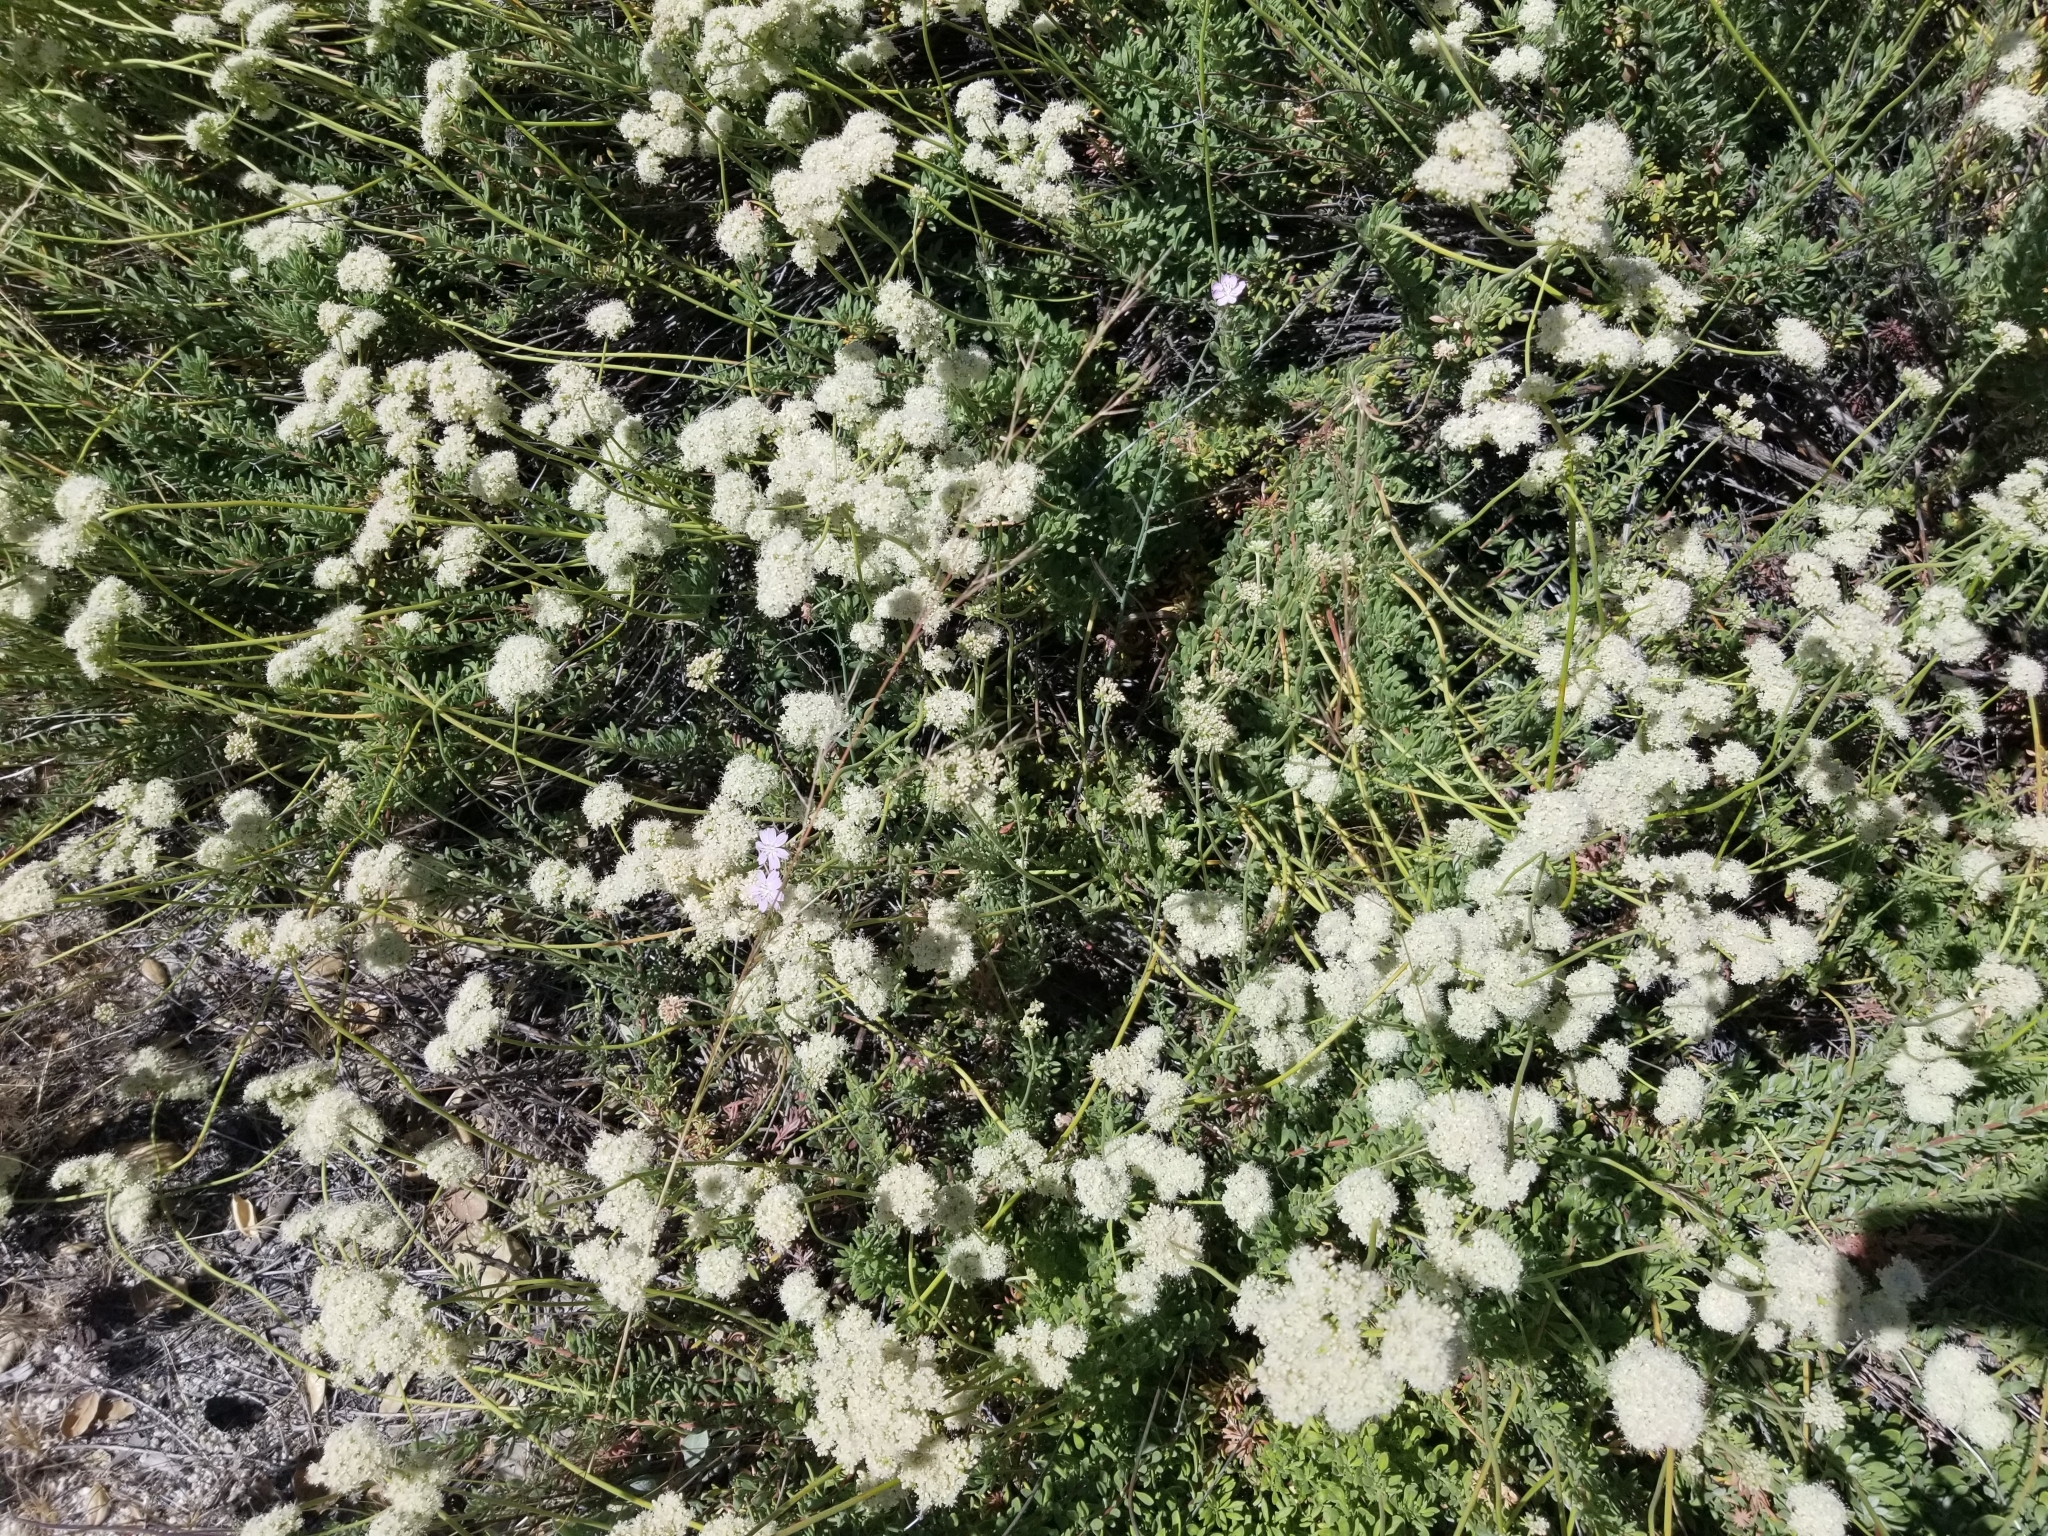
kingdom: Plantae
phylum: Tracheophyta
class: Magnoliopsida
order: Caryophyllales
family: Polygonaceae
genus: Eriogonum
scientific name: Eriogonum fasciculatum
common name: California wild buckwheat
